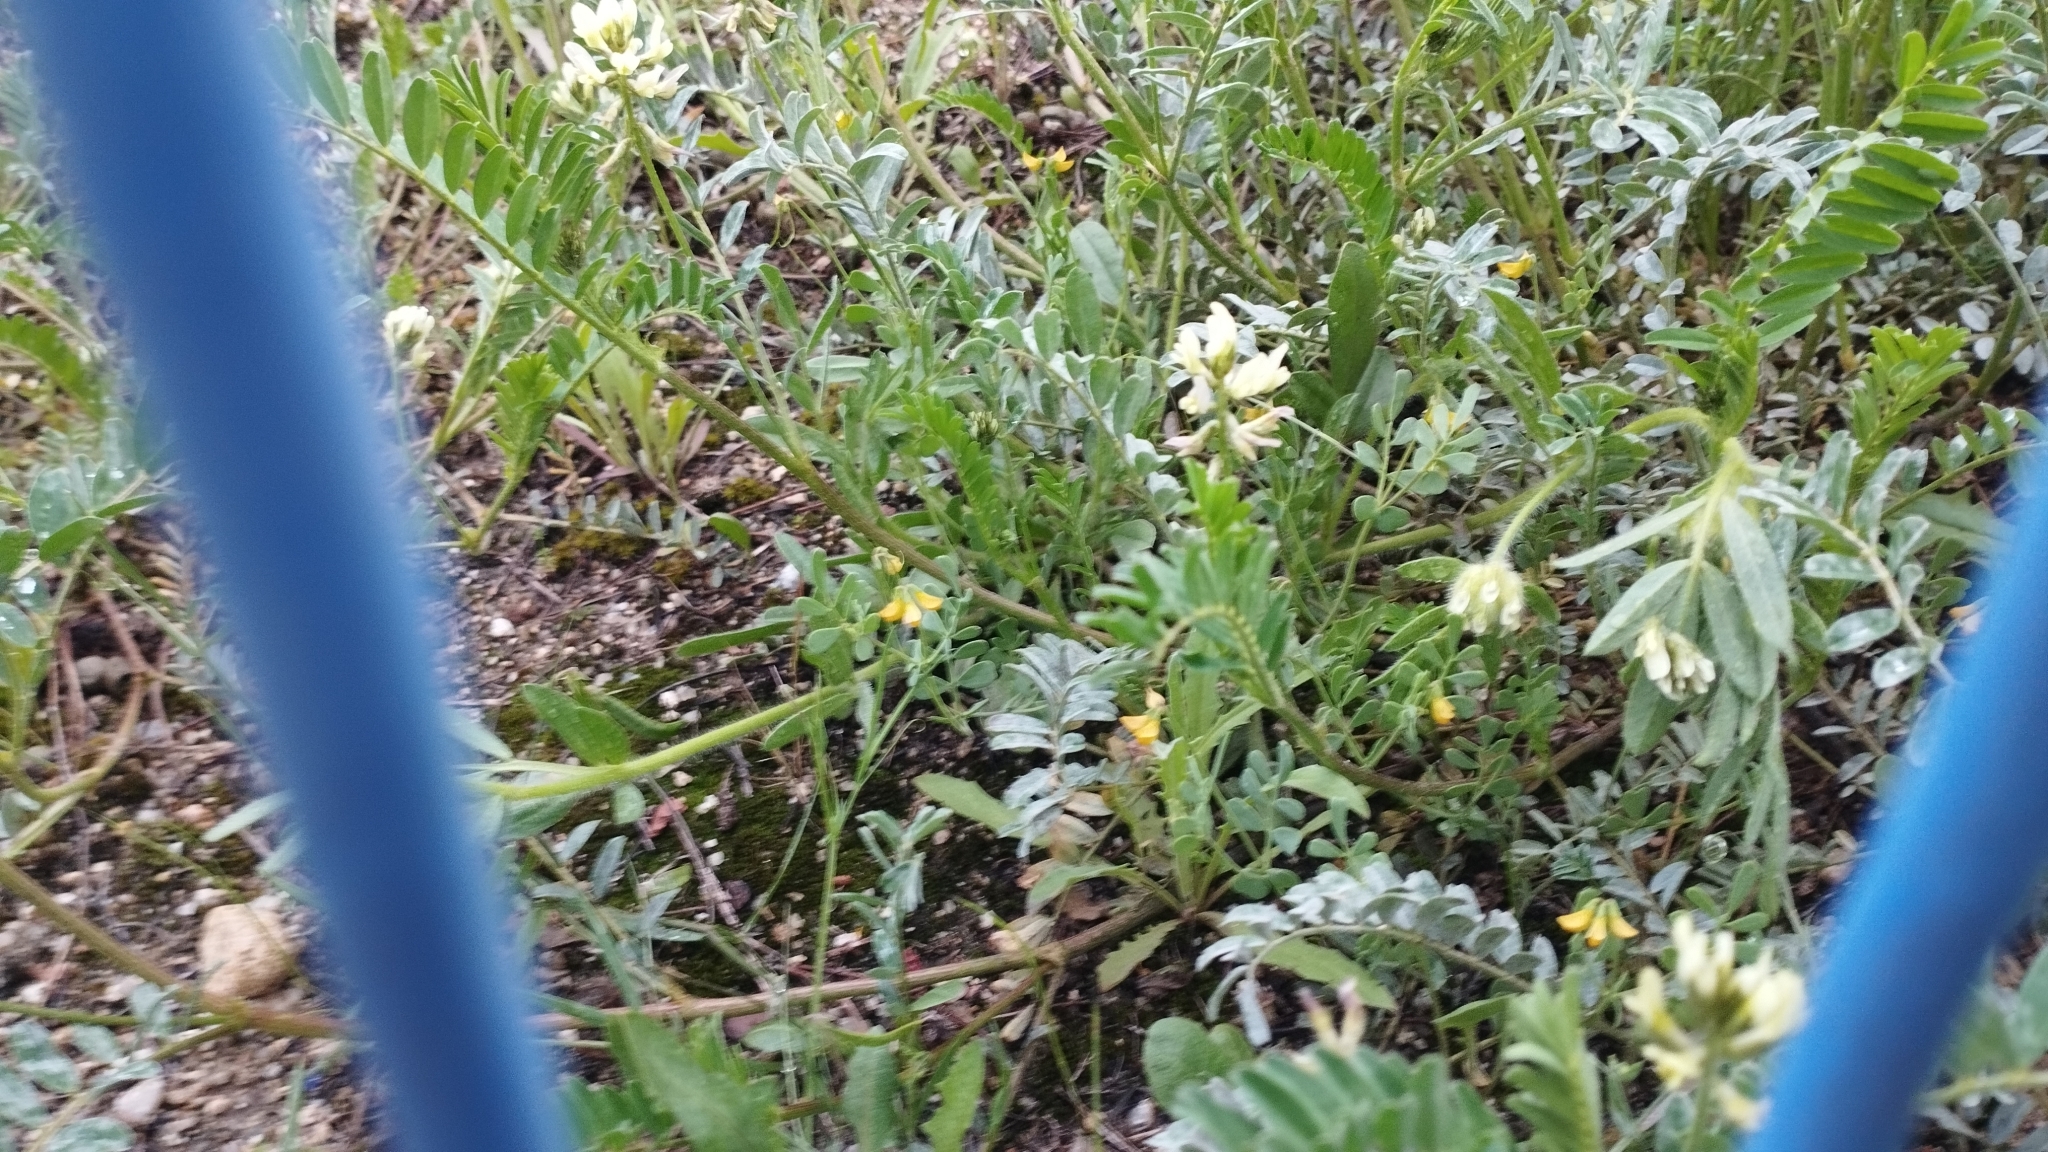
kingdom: Plantae
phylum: Tracheophyta
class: Magnoliopsida
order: Fabales
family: Fabaceae
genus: Astragalus
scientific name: Astragalus hamosus
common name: European milkvetch
